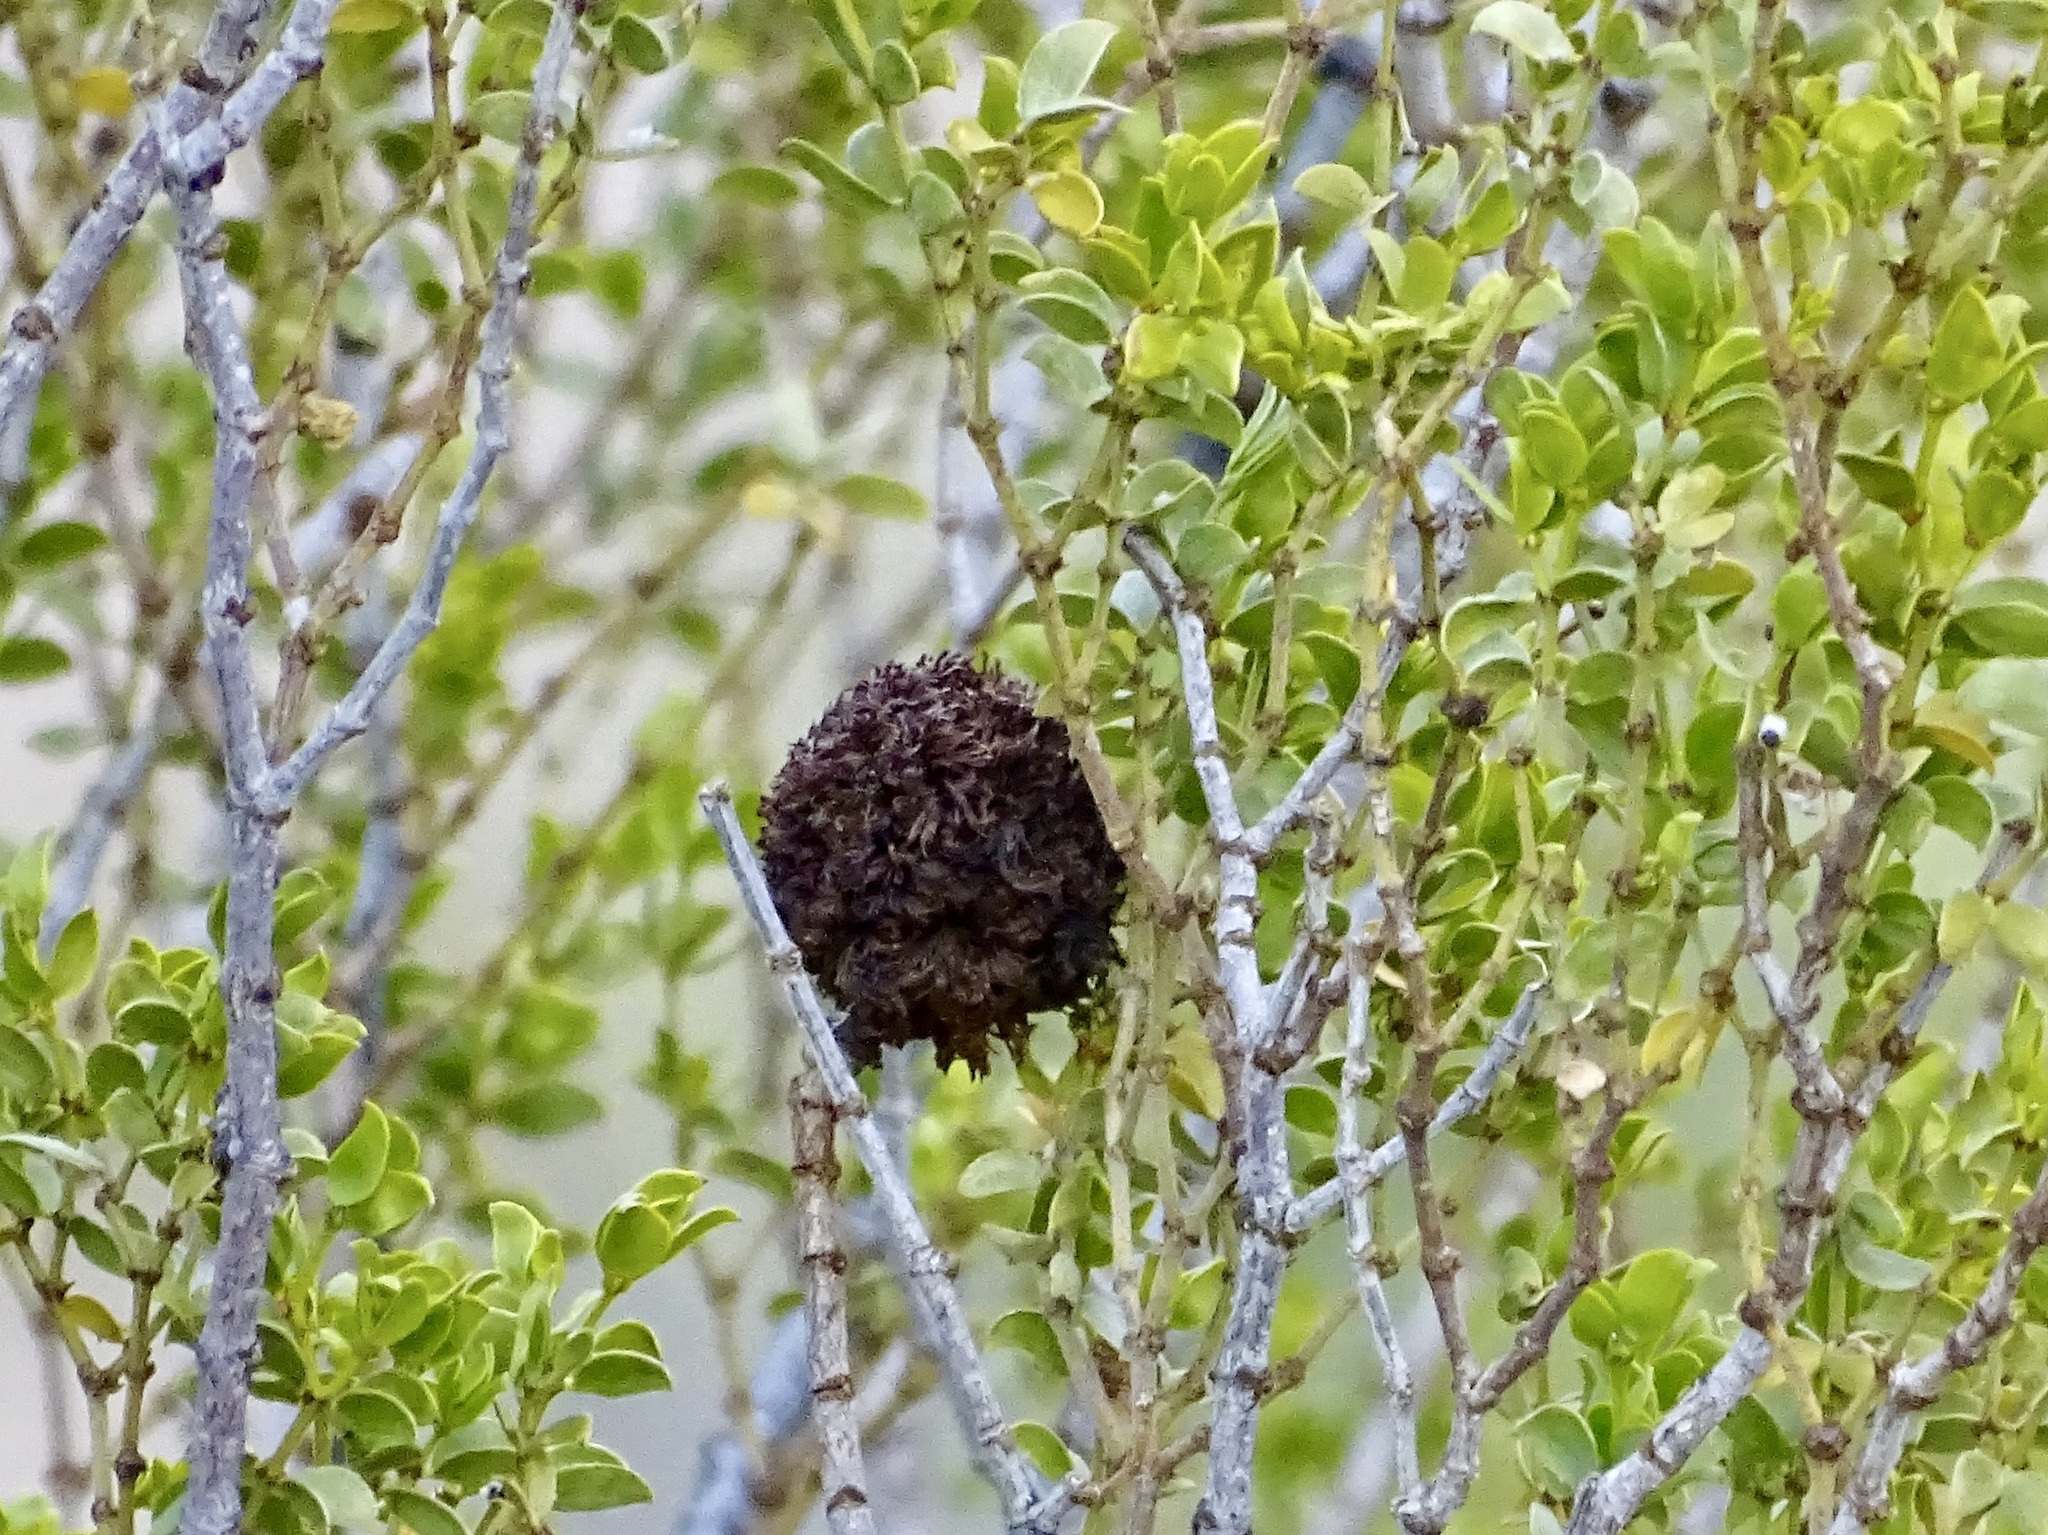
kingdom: Animalia
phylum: Arthropoda
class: Insecta
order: Diptera
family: Cecidomyiidae
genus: Asphondylia
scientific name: Asphondylia auripila
